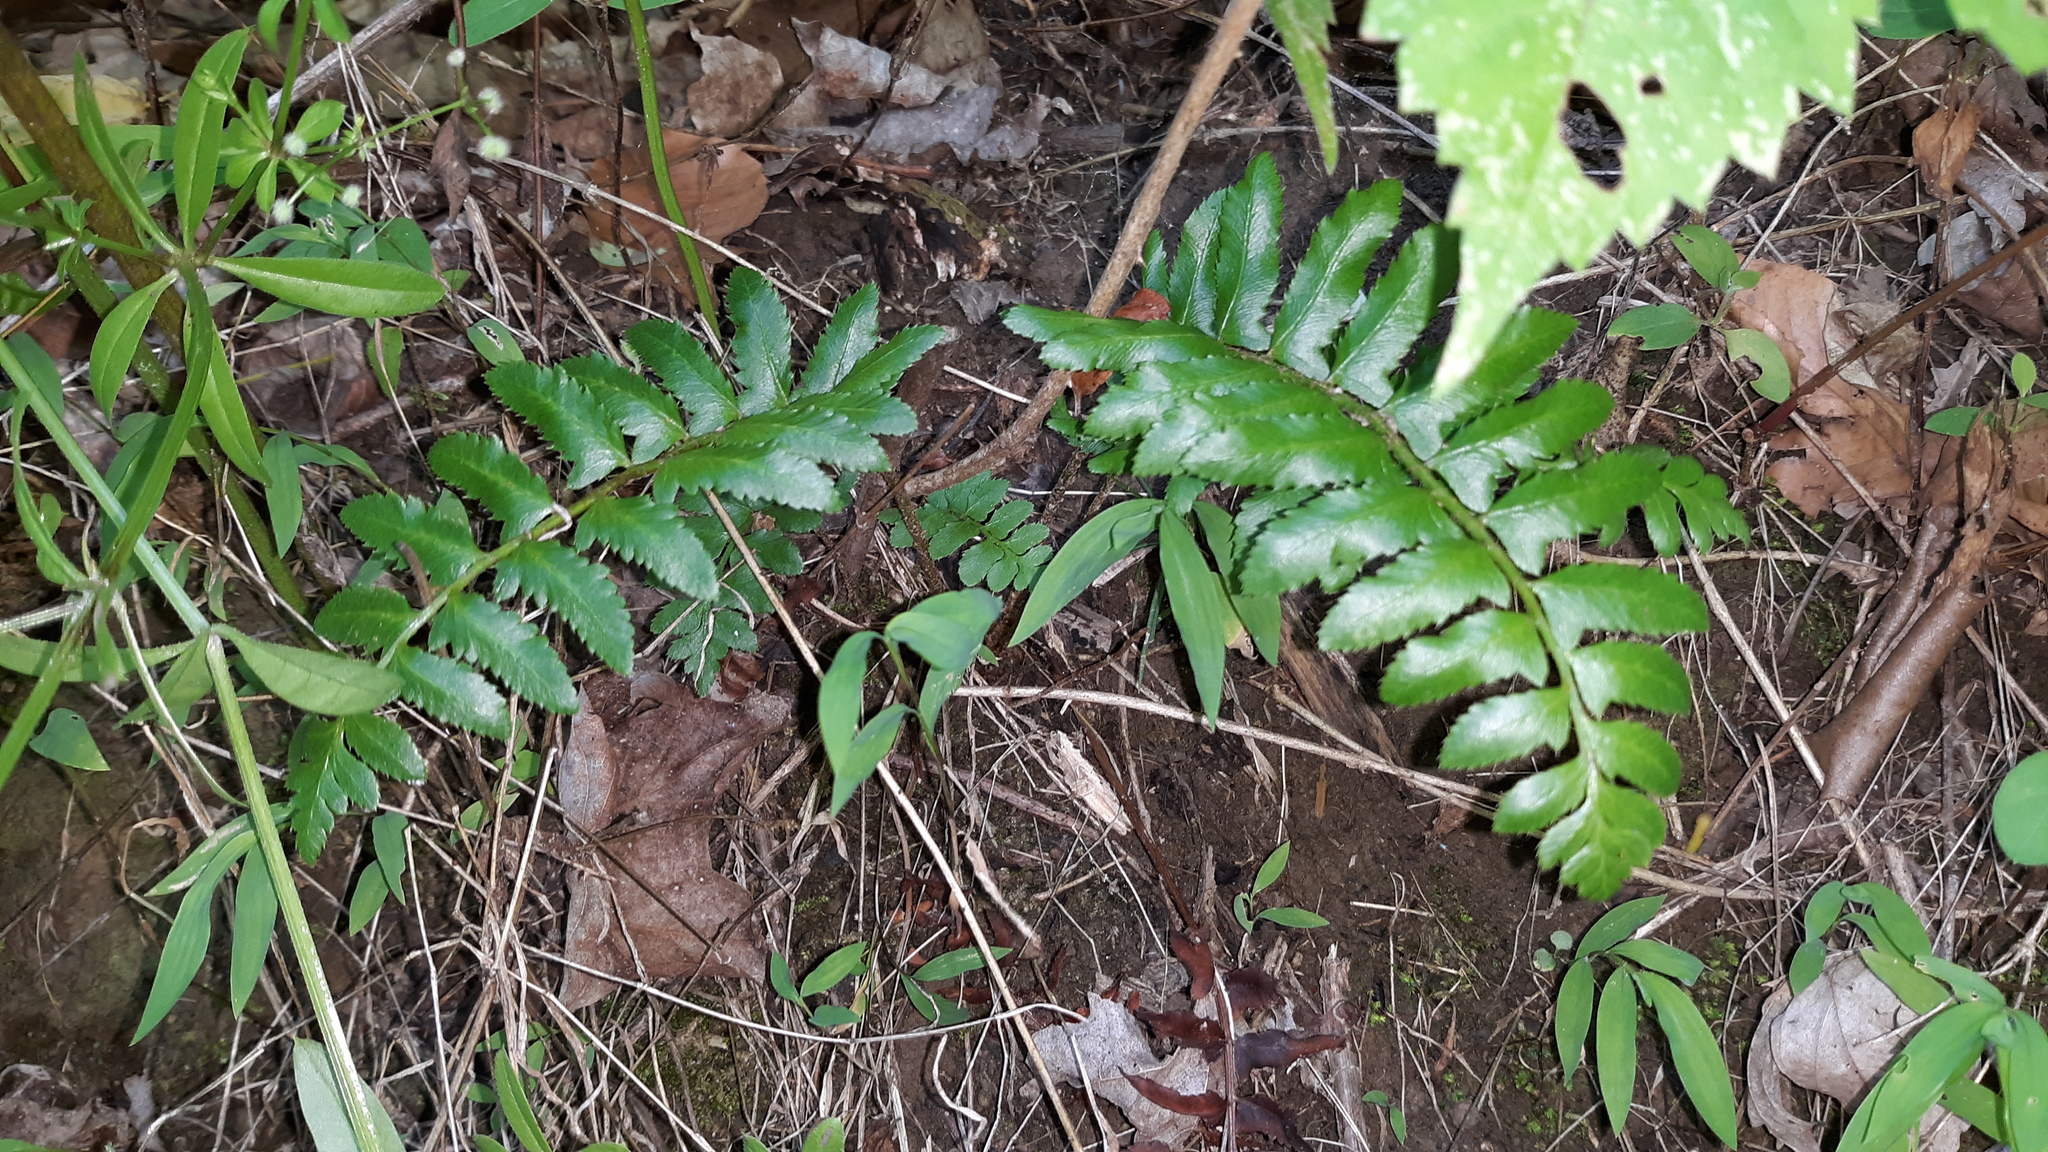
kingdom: Plantae
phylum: Tracheophyta
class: Polypodiopsida
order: Polypodiales
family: Dryopteridaceae
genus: Polystichum
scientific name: Polystichum acrostichoides
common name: Christmas fern
